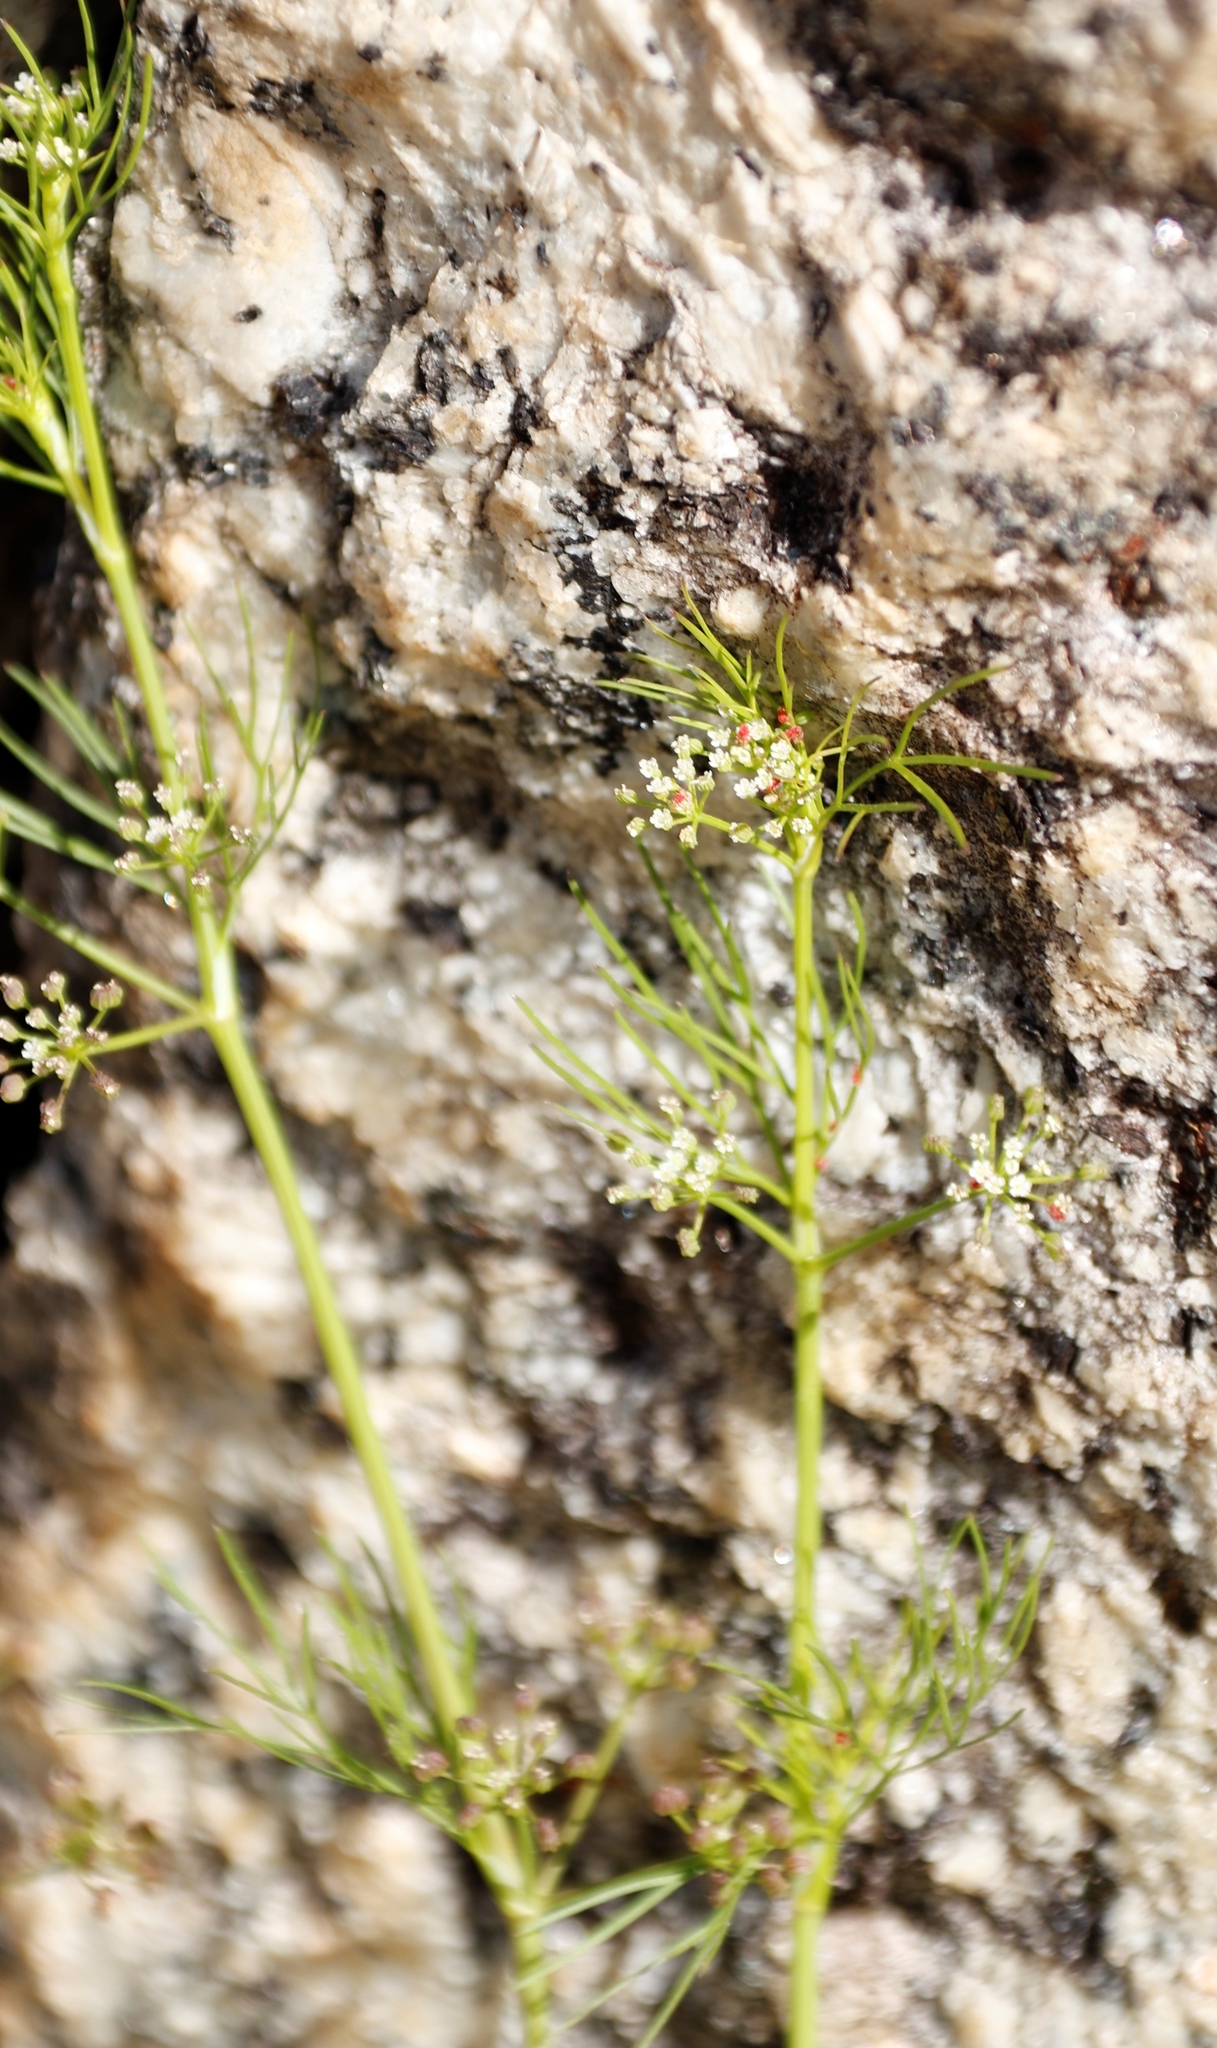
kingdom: Plantae
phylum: Tracheophyta
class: Magnoliopsida
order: Apiales
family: Apiaceae
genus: Cyclospermum
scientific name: Cyclospermum leptophyllum
